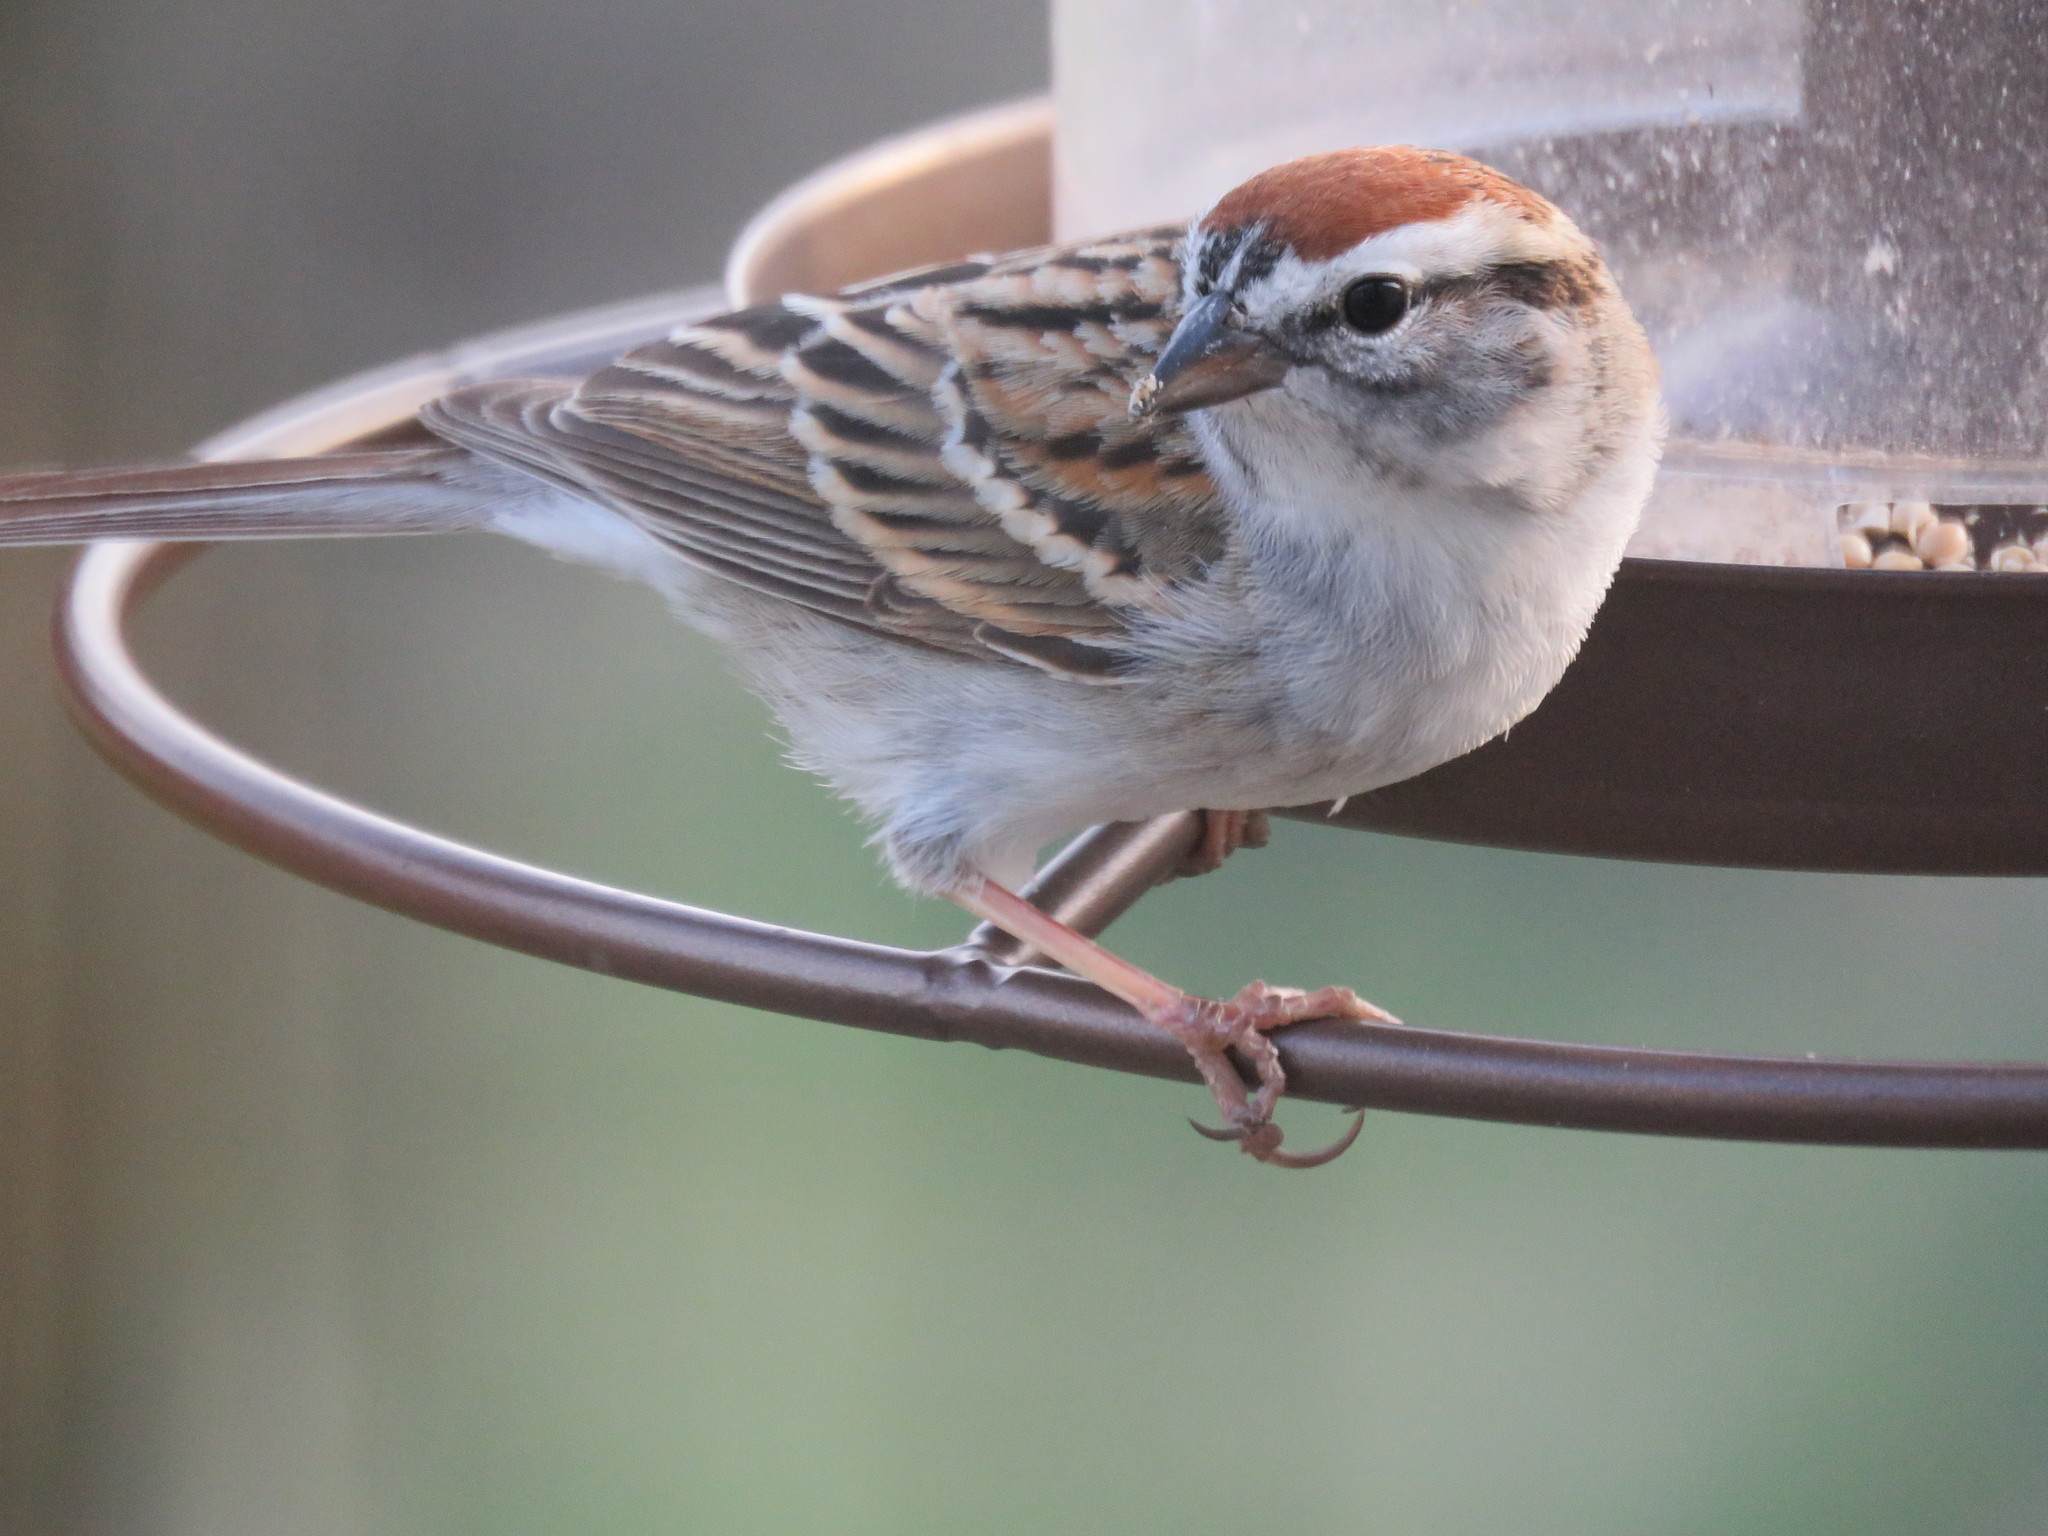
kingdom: Animalia
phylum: Chordata
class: Aves
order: Passeriformes
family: Passerellidae
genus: Spizella
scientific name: Spizella passerina
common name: Chipping sparrow
